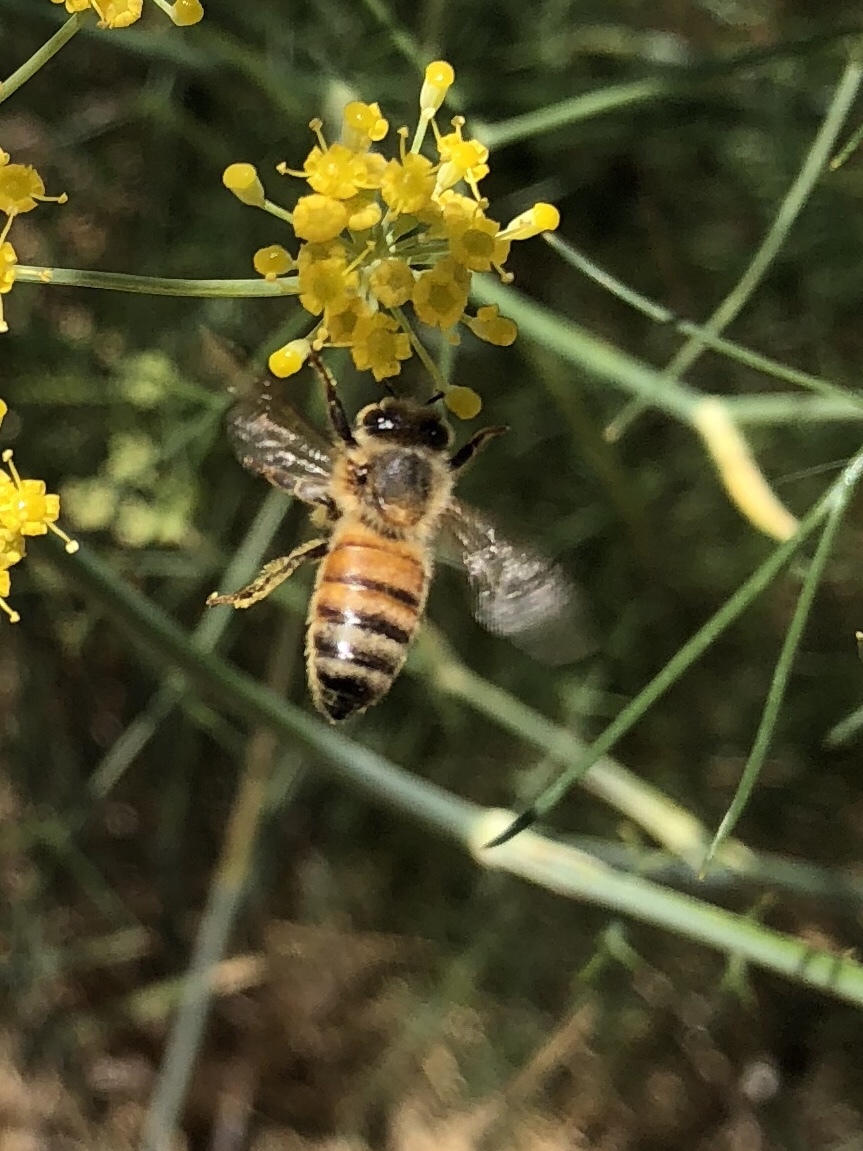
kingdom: Animalia
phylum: Arthropoda
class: Insecta
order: Hymenoptera
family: Apidae
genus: Apis
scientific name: Apis mellifera
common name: Honey bee
